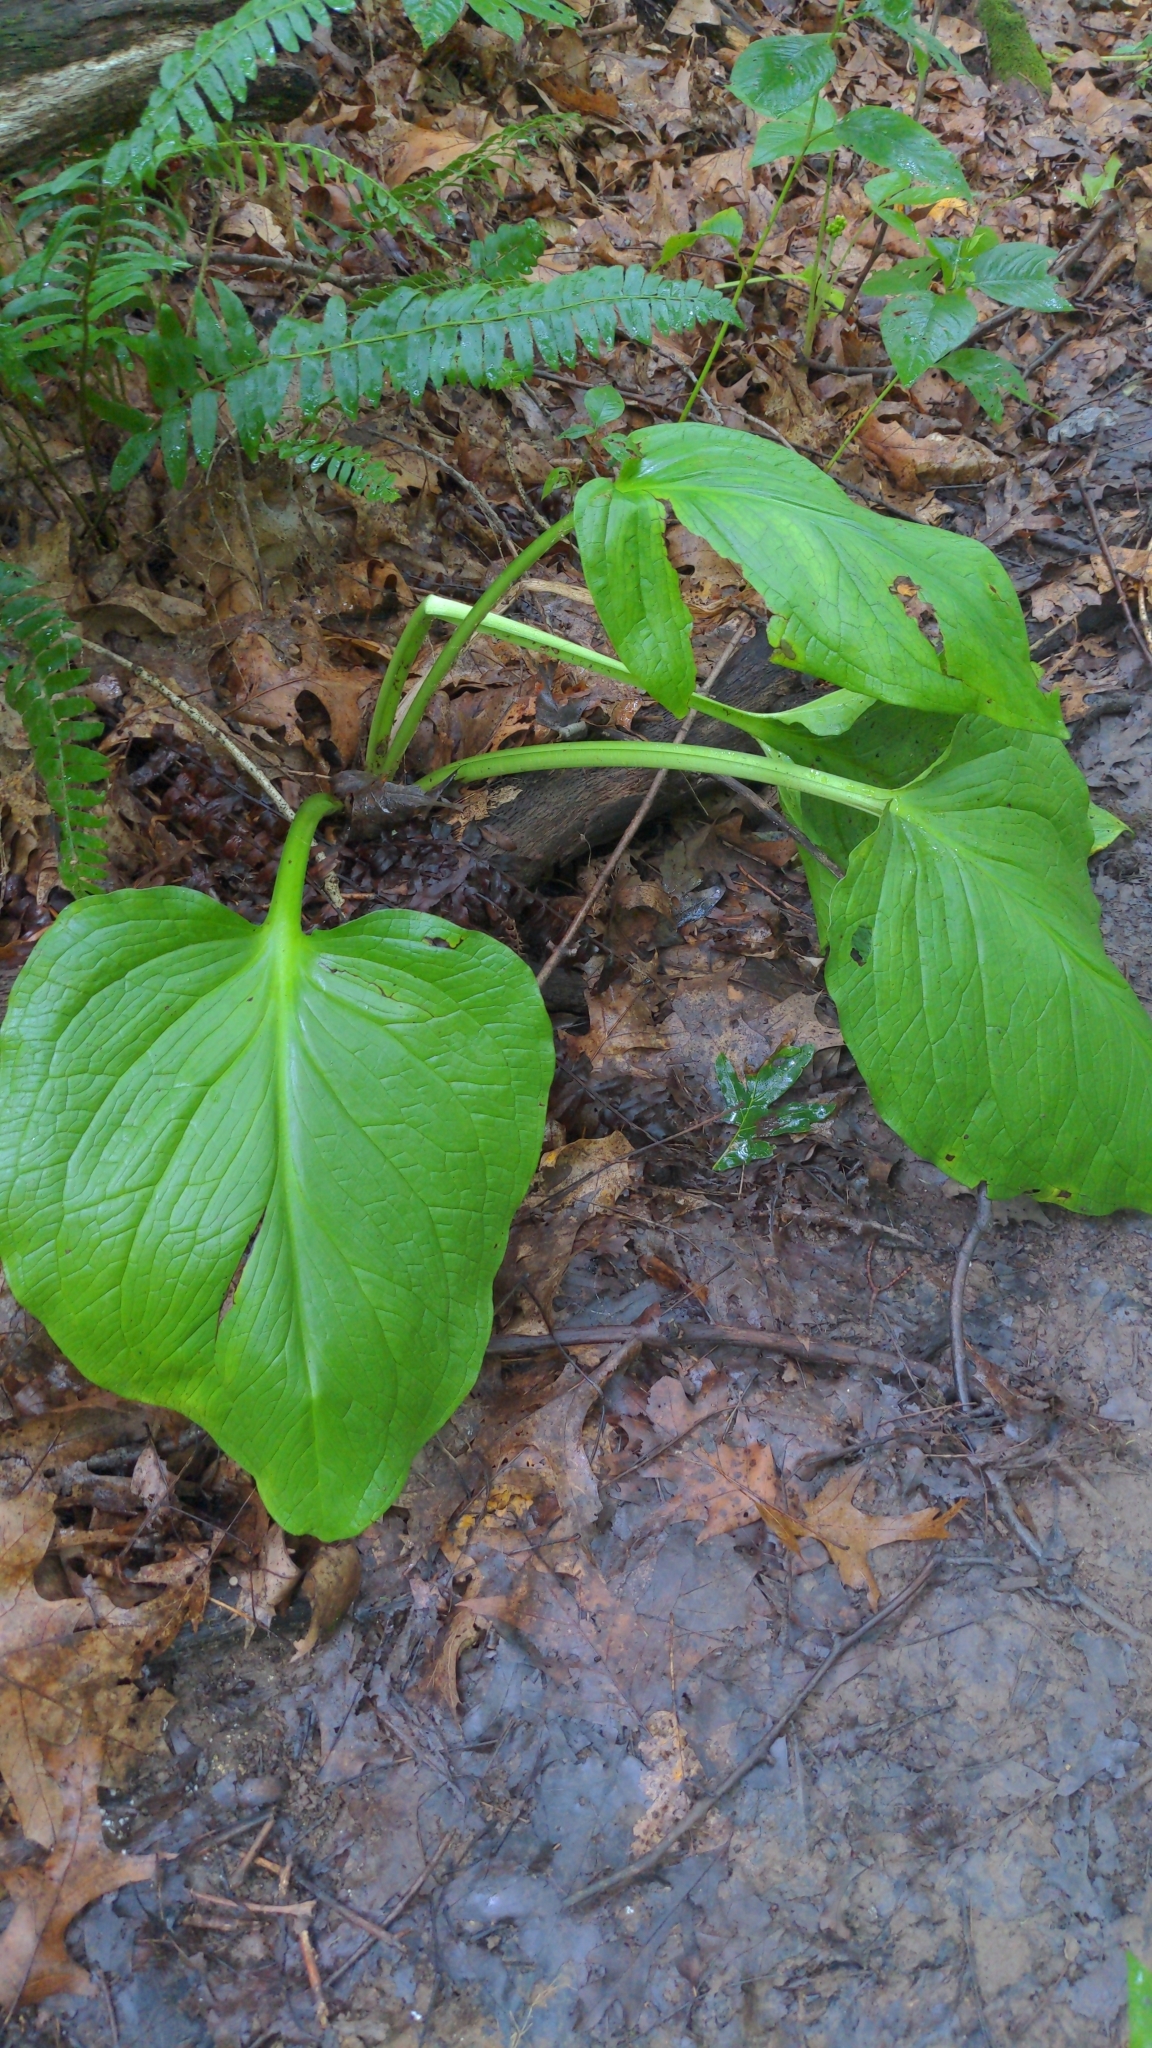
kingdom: Plantae
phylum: Tracheophyta
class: Liliopsida
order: Alismatales
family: Araceae
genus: Symplocarpus
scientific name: Symplocarpus foetidus
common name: Eastern skunk cabbage
